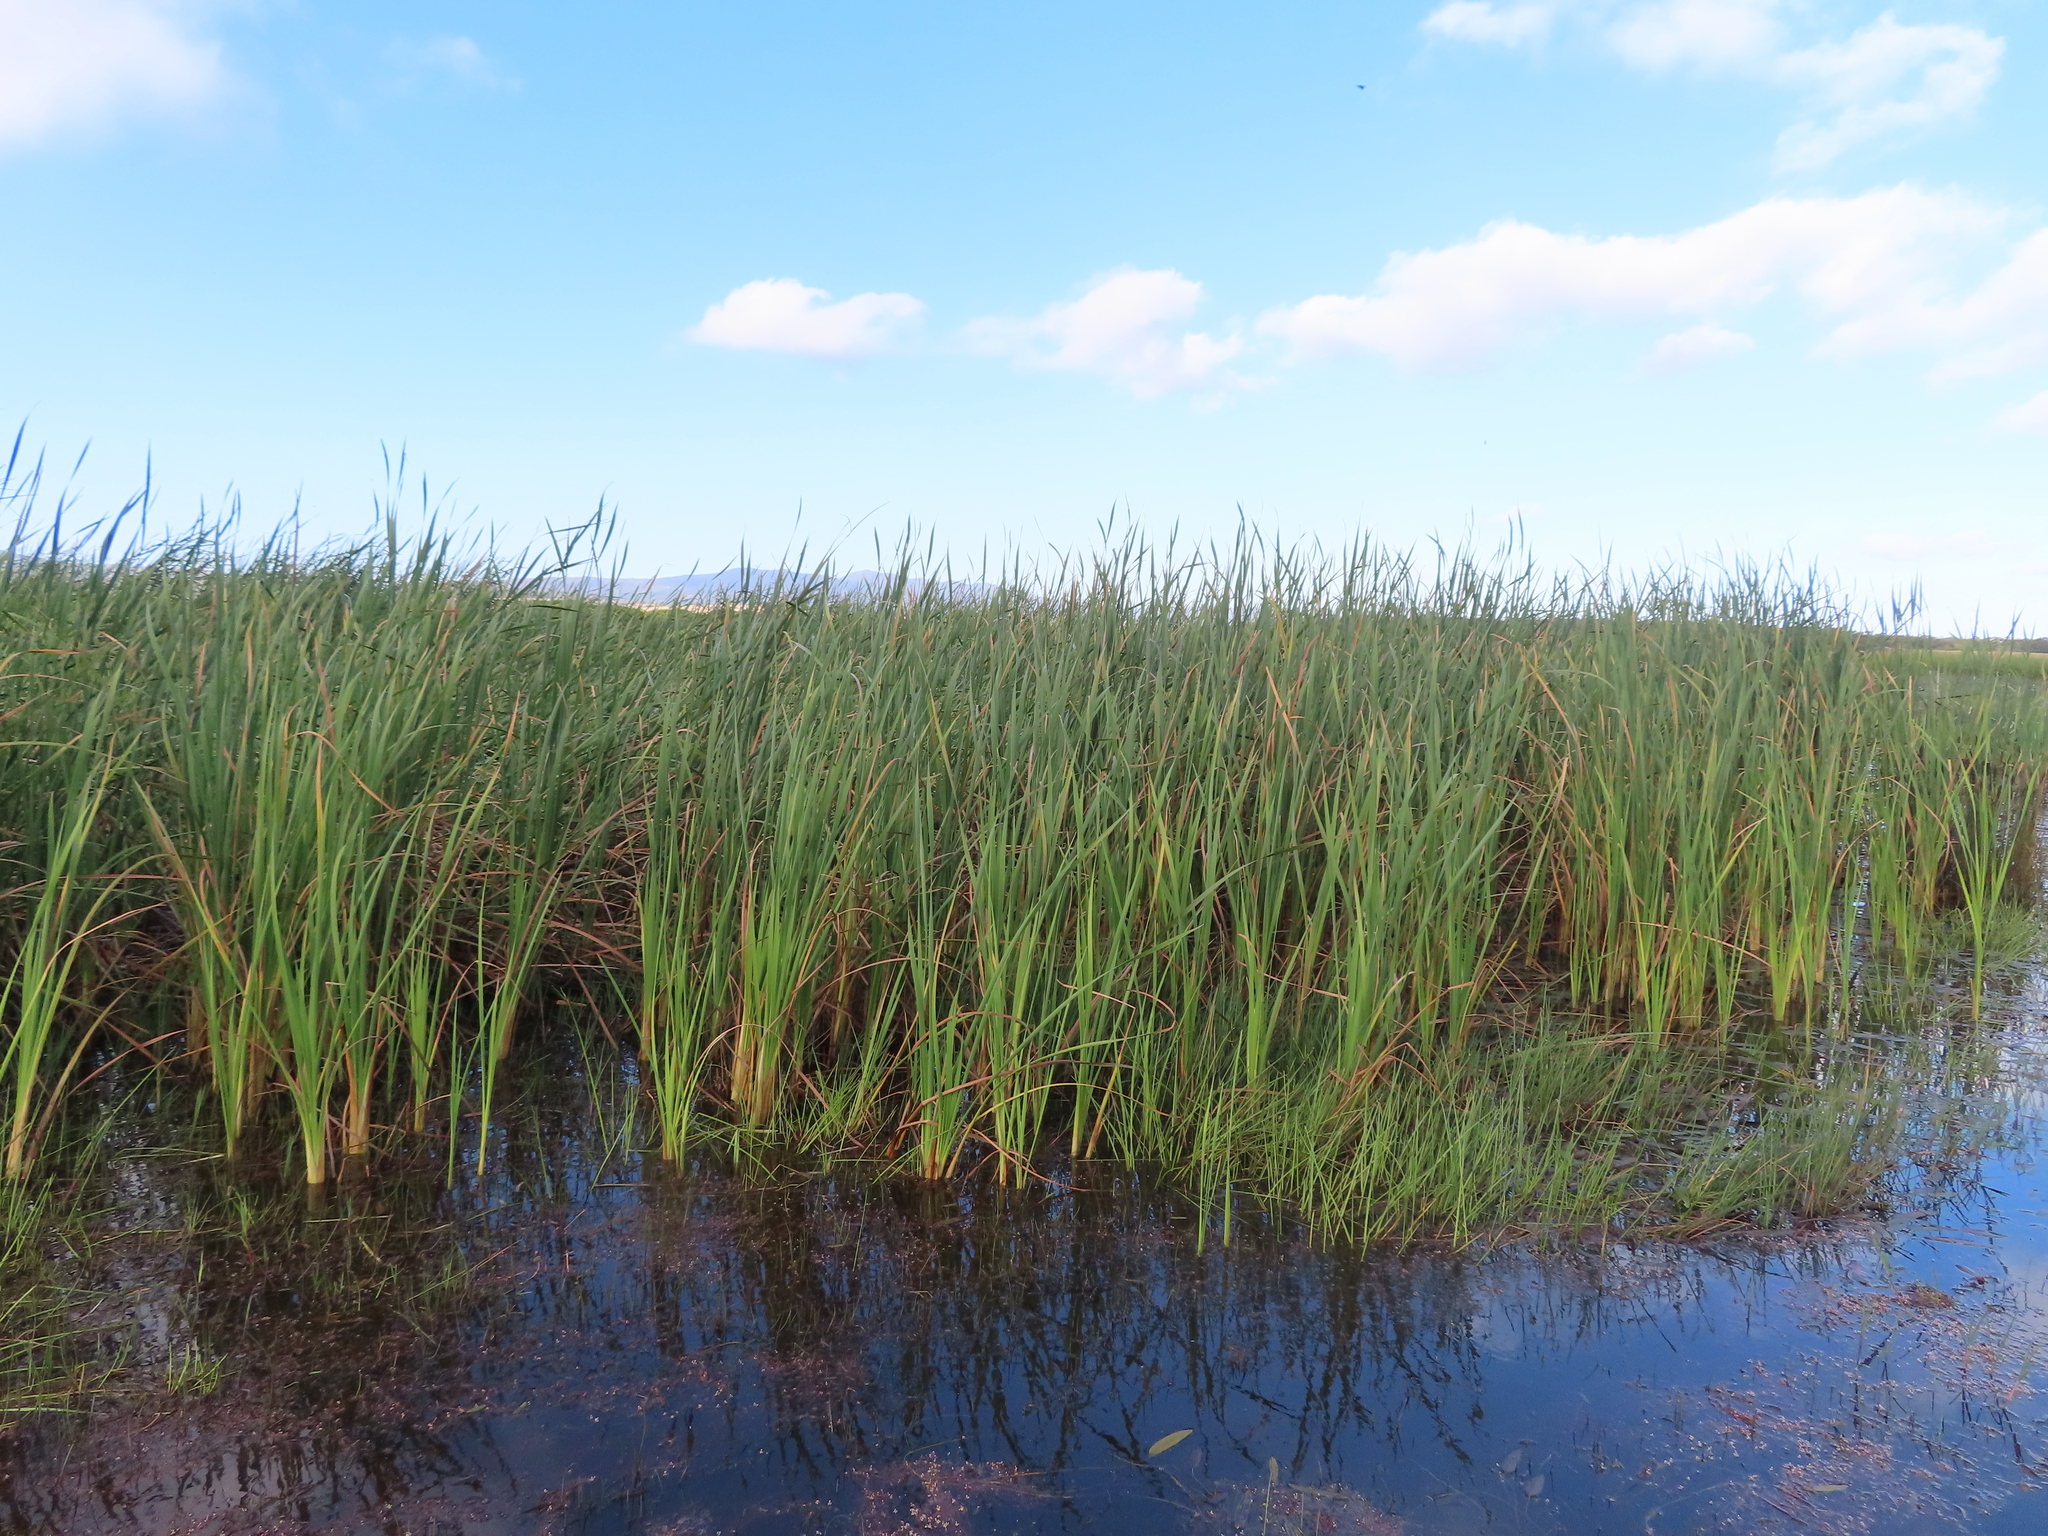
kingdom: Plantae
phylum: Tracheophyta
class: Liliopsida
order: Poales
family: Typhaceae
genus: Typha
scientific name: Typha capensis
